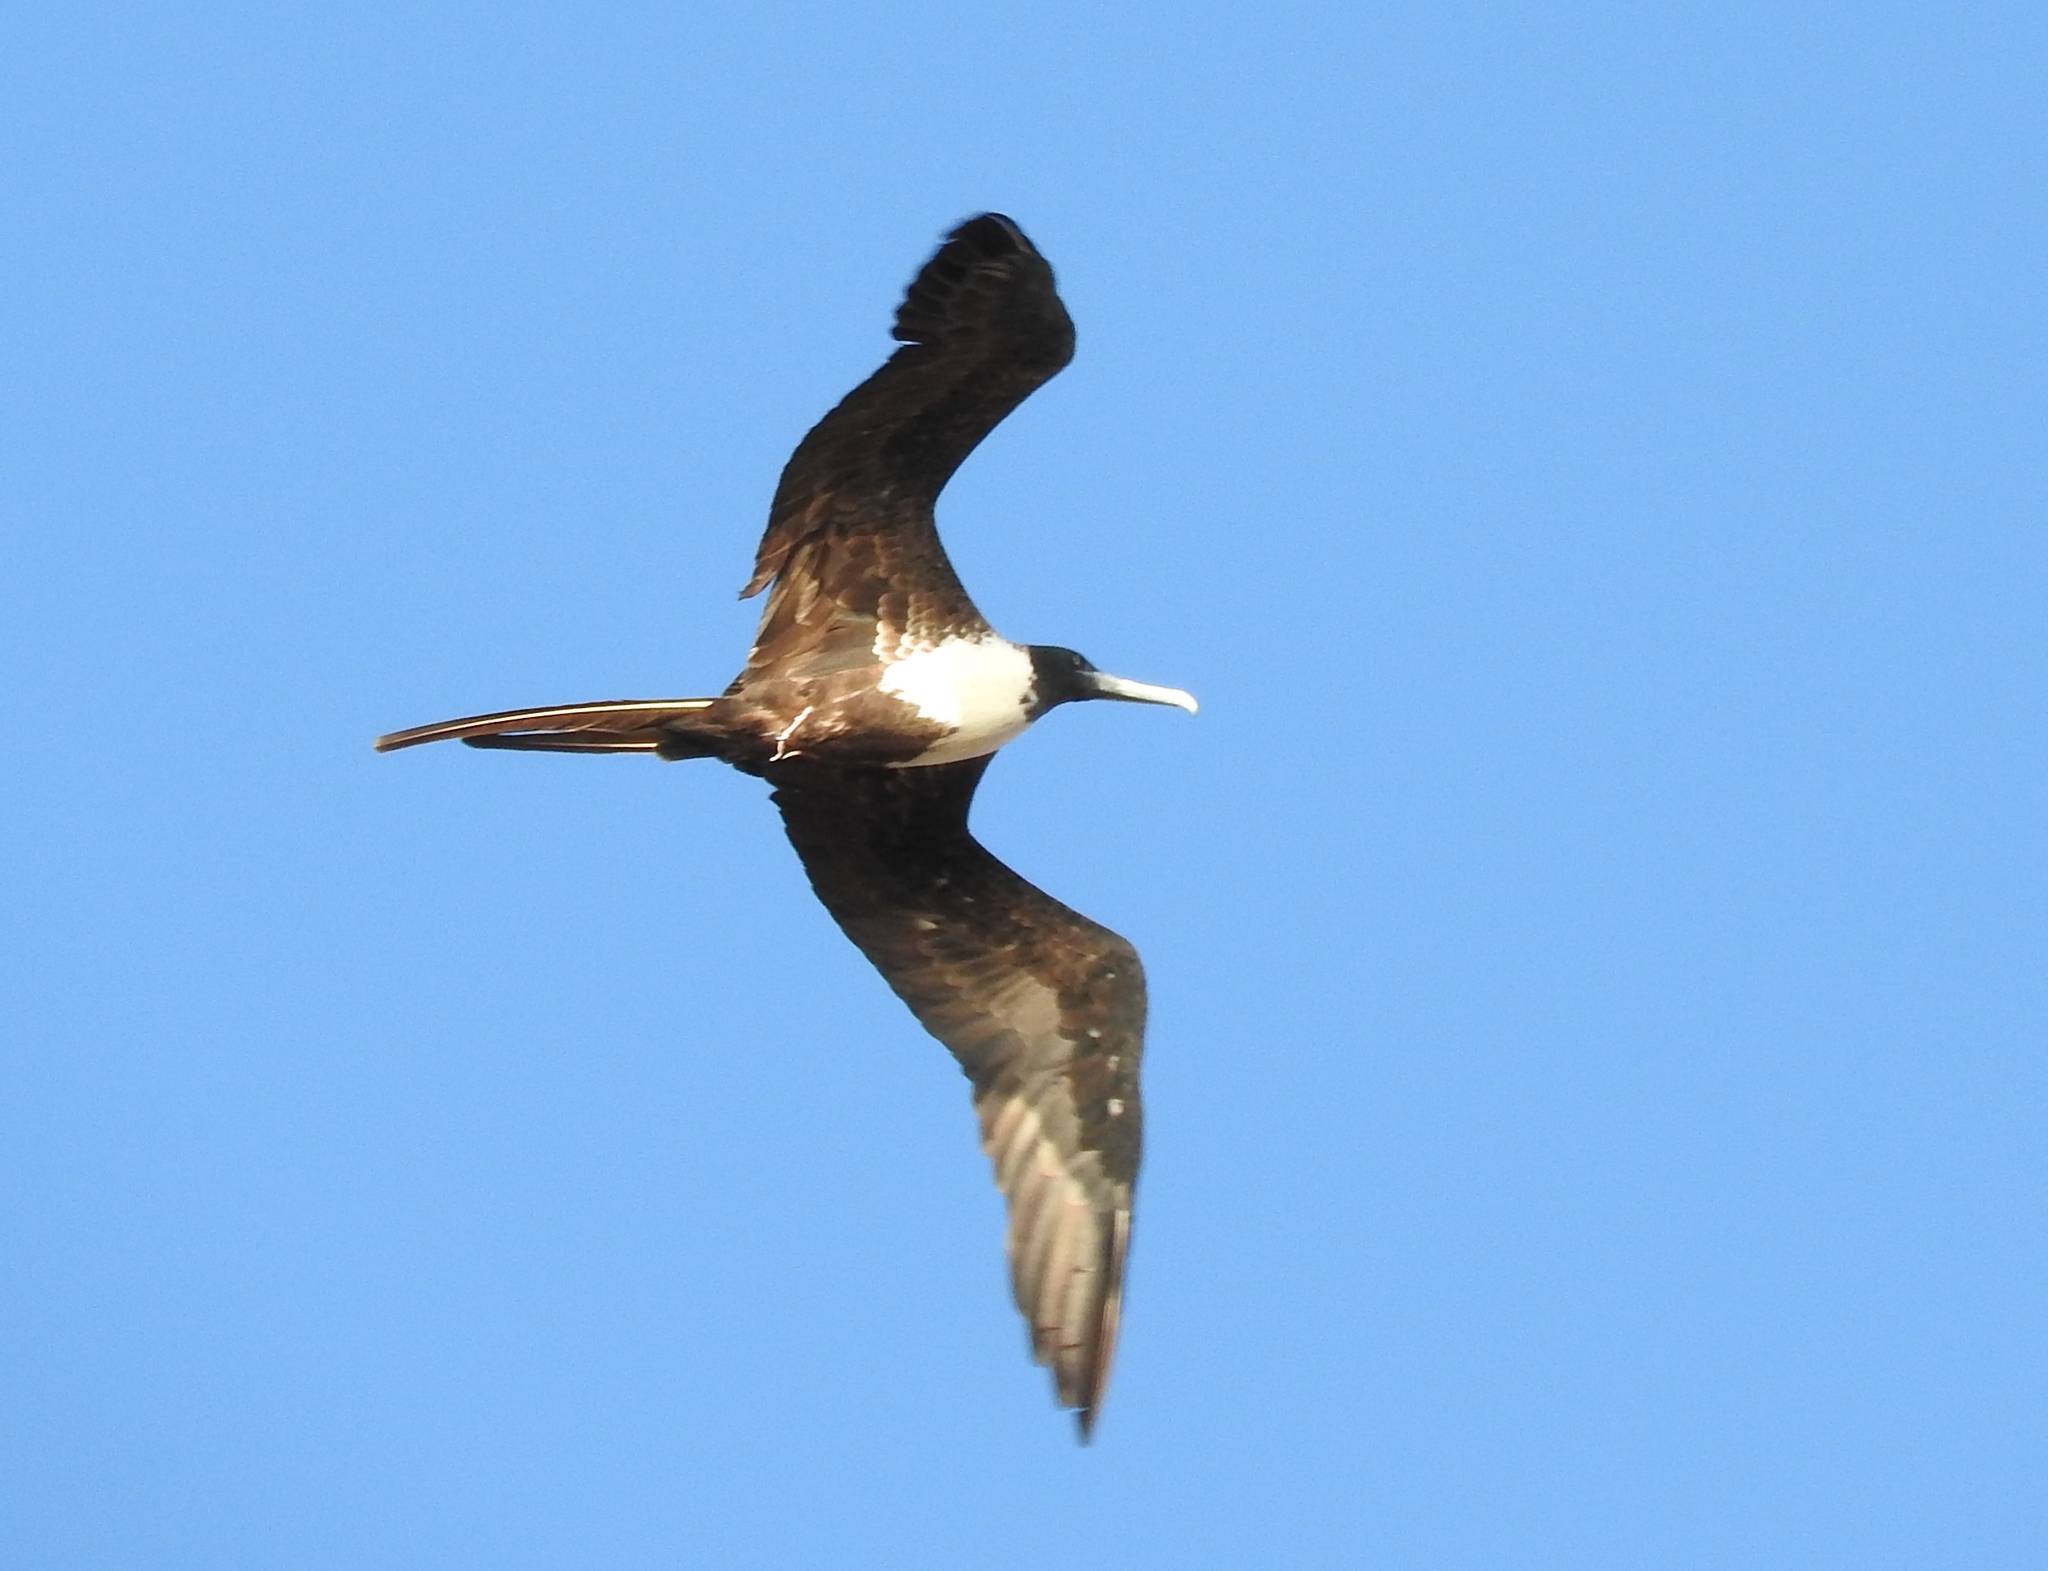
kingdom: Animalia
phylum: Chordata
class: Aves
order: Suliformes
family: Fregatidae
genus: Fregata
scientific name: Fregata magnificens
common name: Magnificent frigatebird
